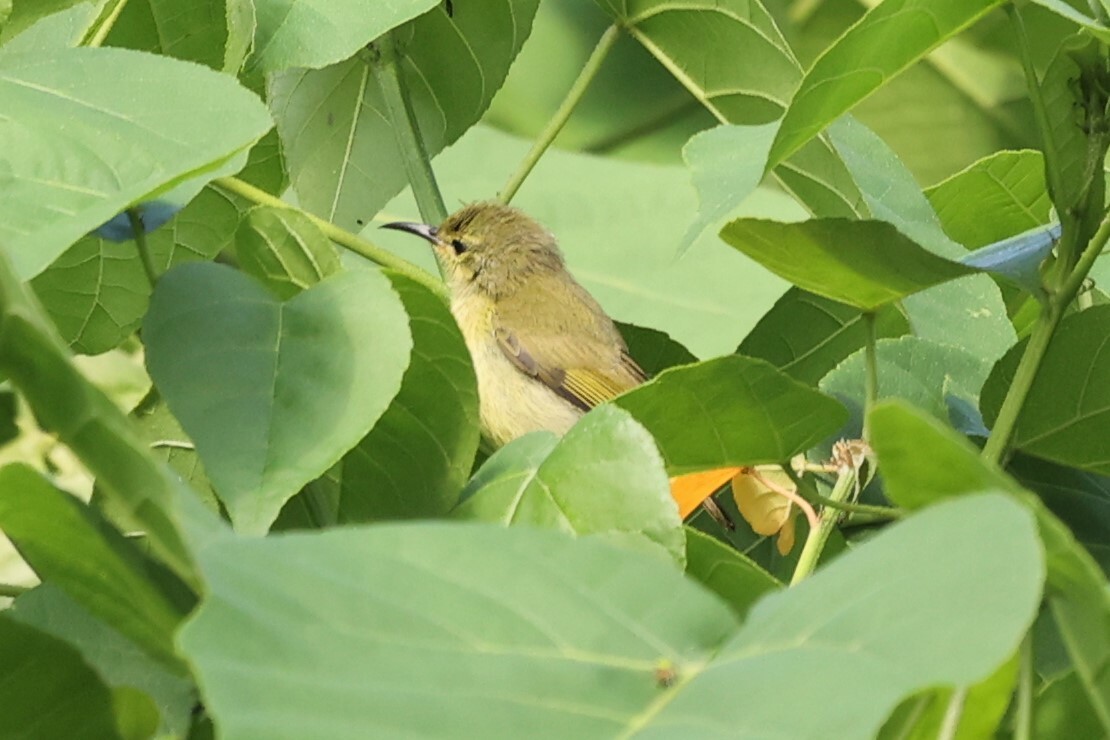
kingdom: Animalia
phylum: Chordata
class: Aves
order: Passeriformes
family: Nectariniidae
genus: Anthreptes
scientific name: Anthreptes seimundi
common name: Little green sunbird
